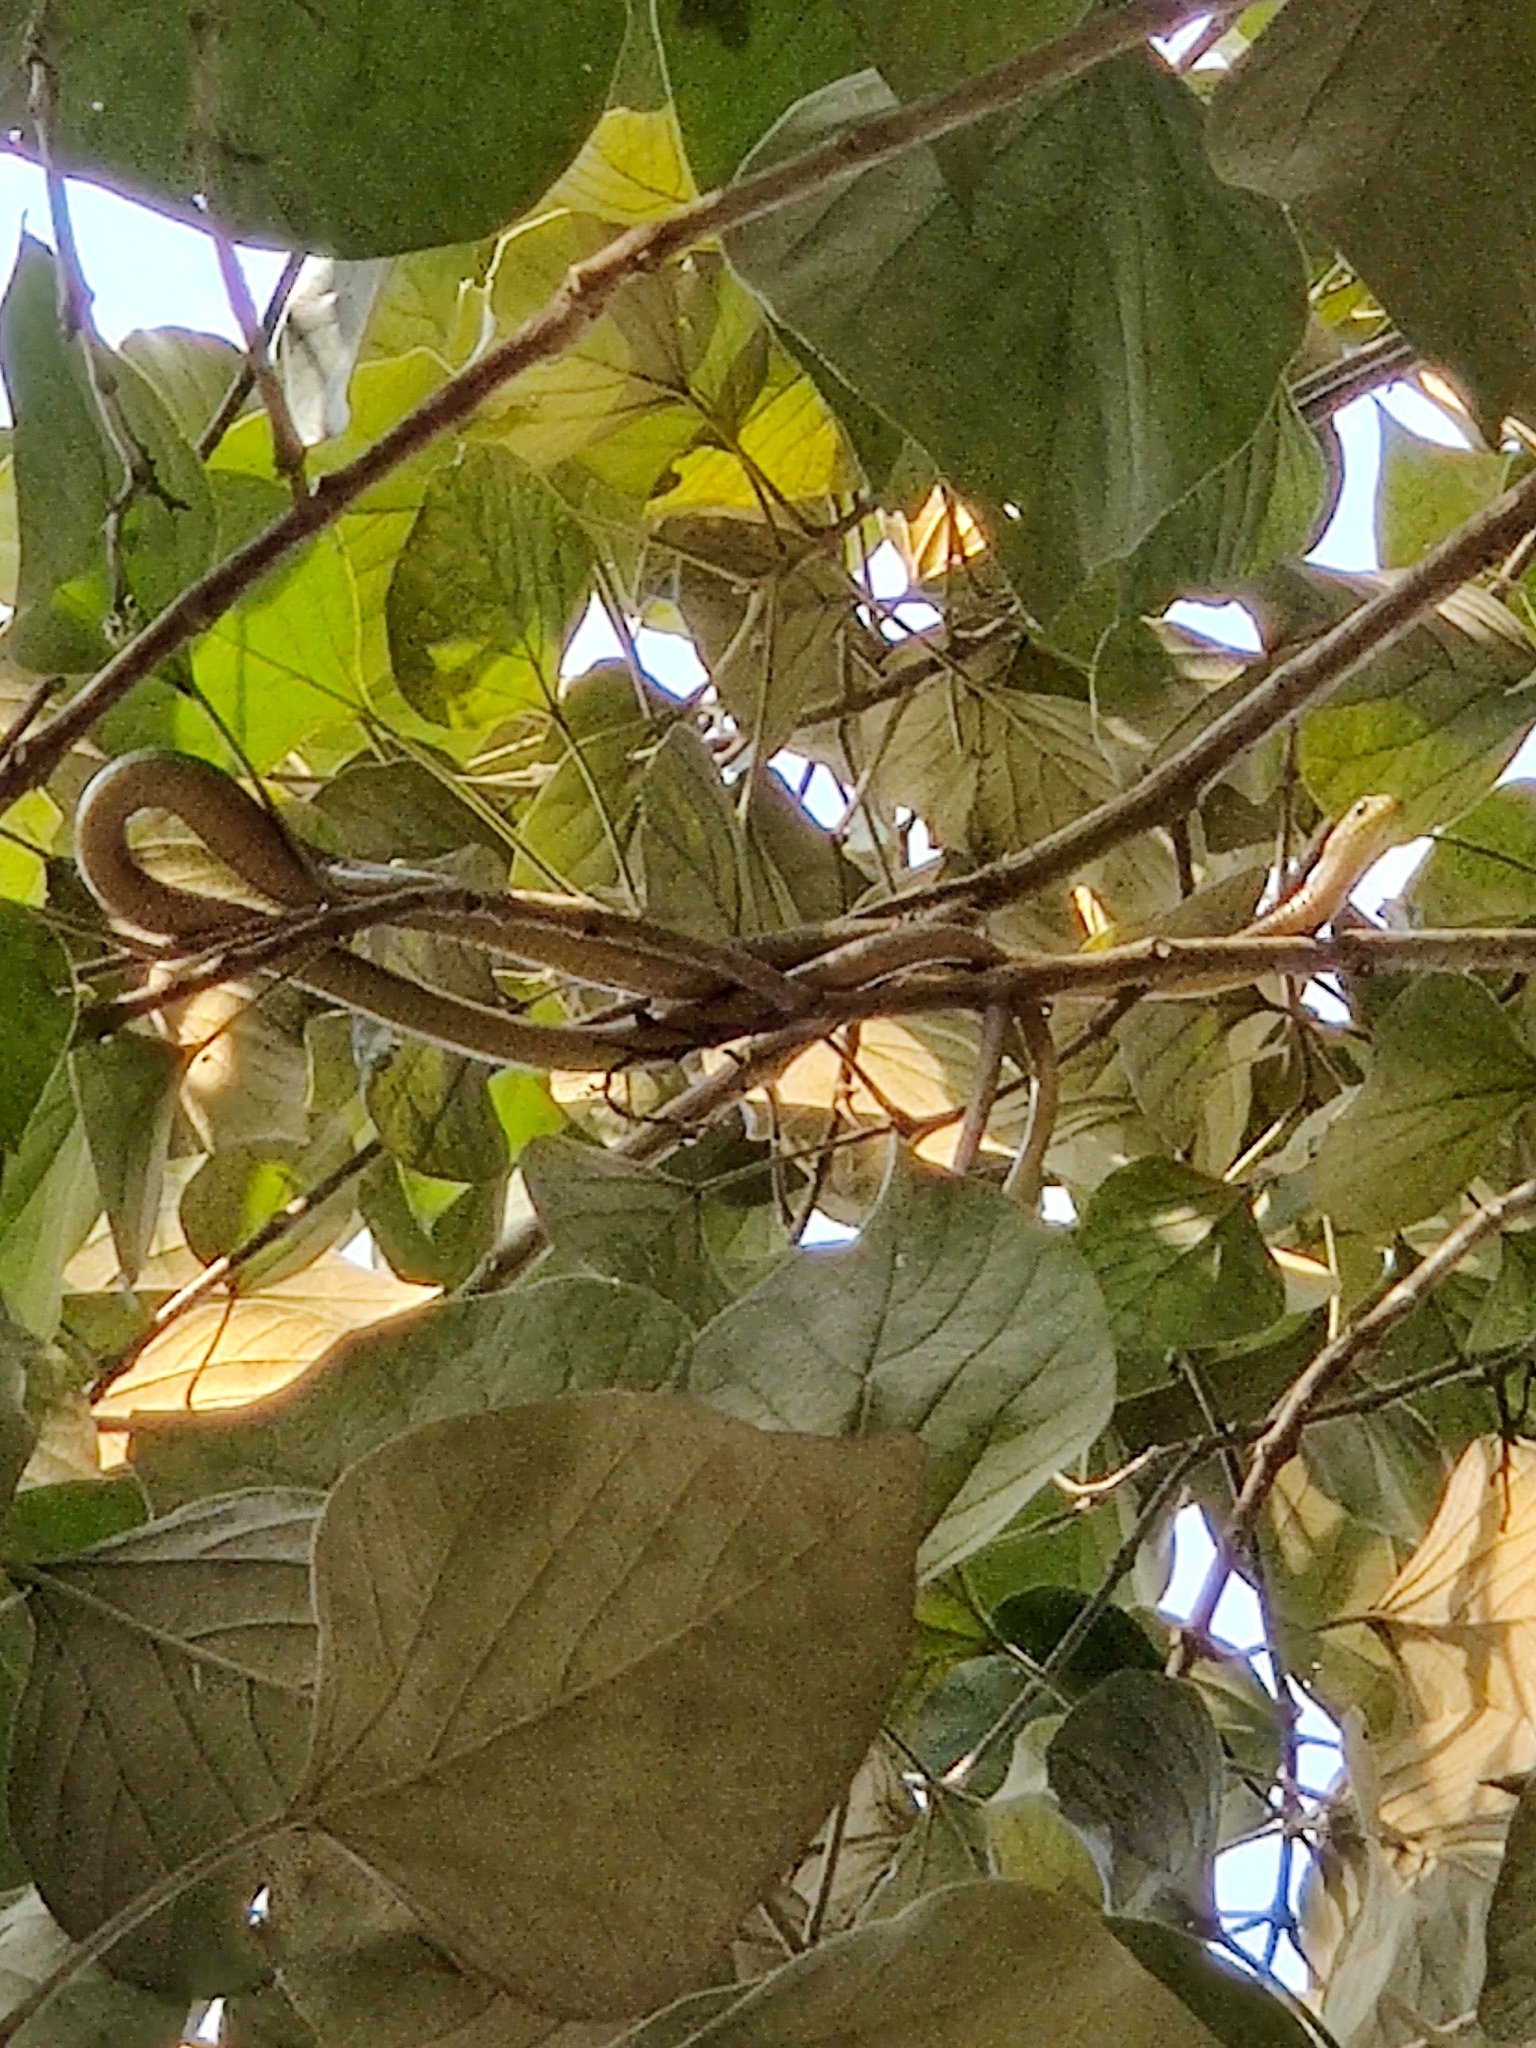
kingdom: Animalia
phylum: Chordata
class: Squamata
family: Colubridae
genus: Ptyas
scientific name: Ptyas mucosa
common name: Oriental ratsnake
